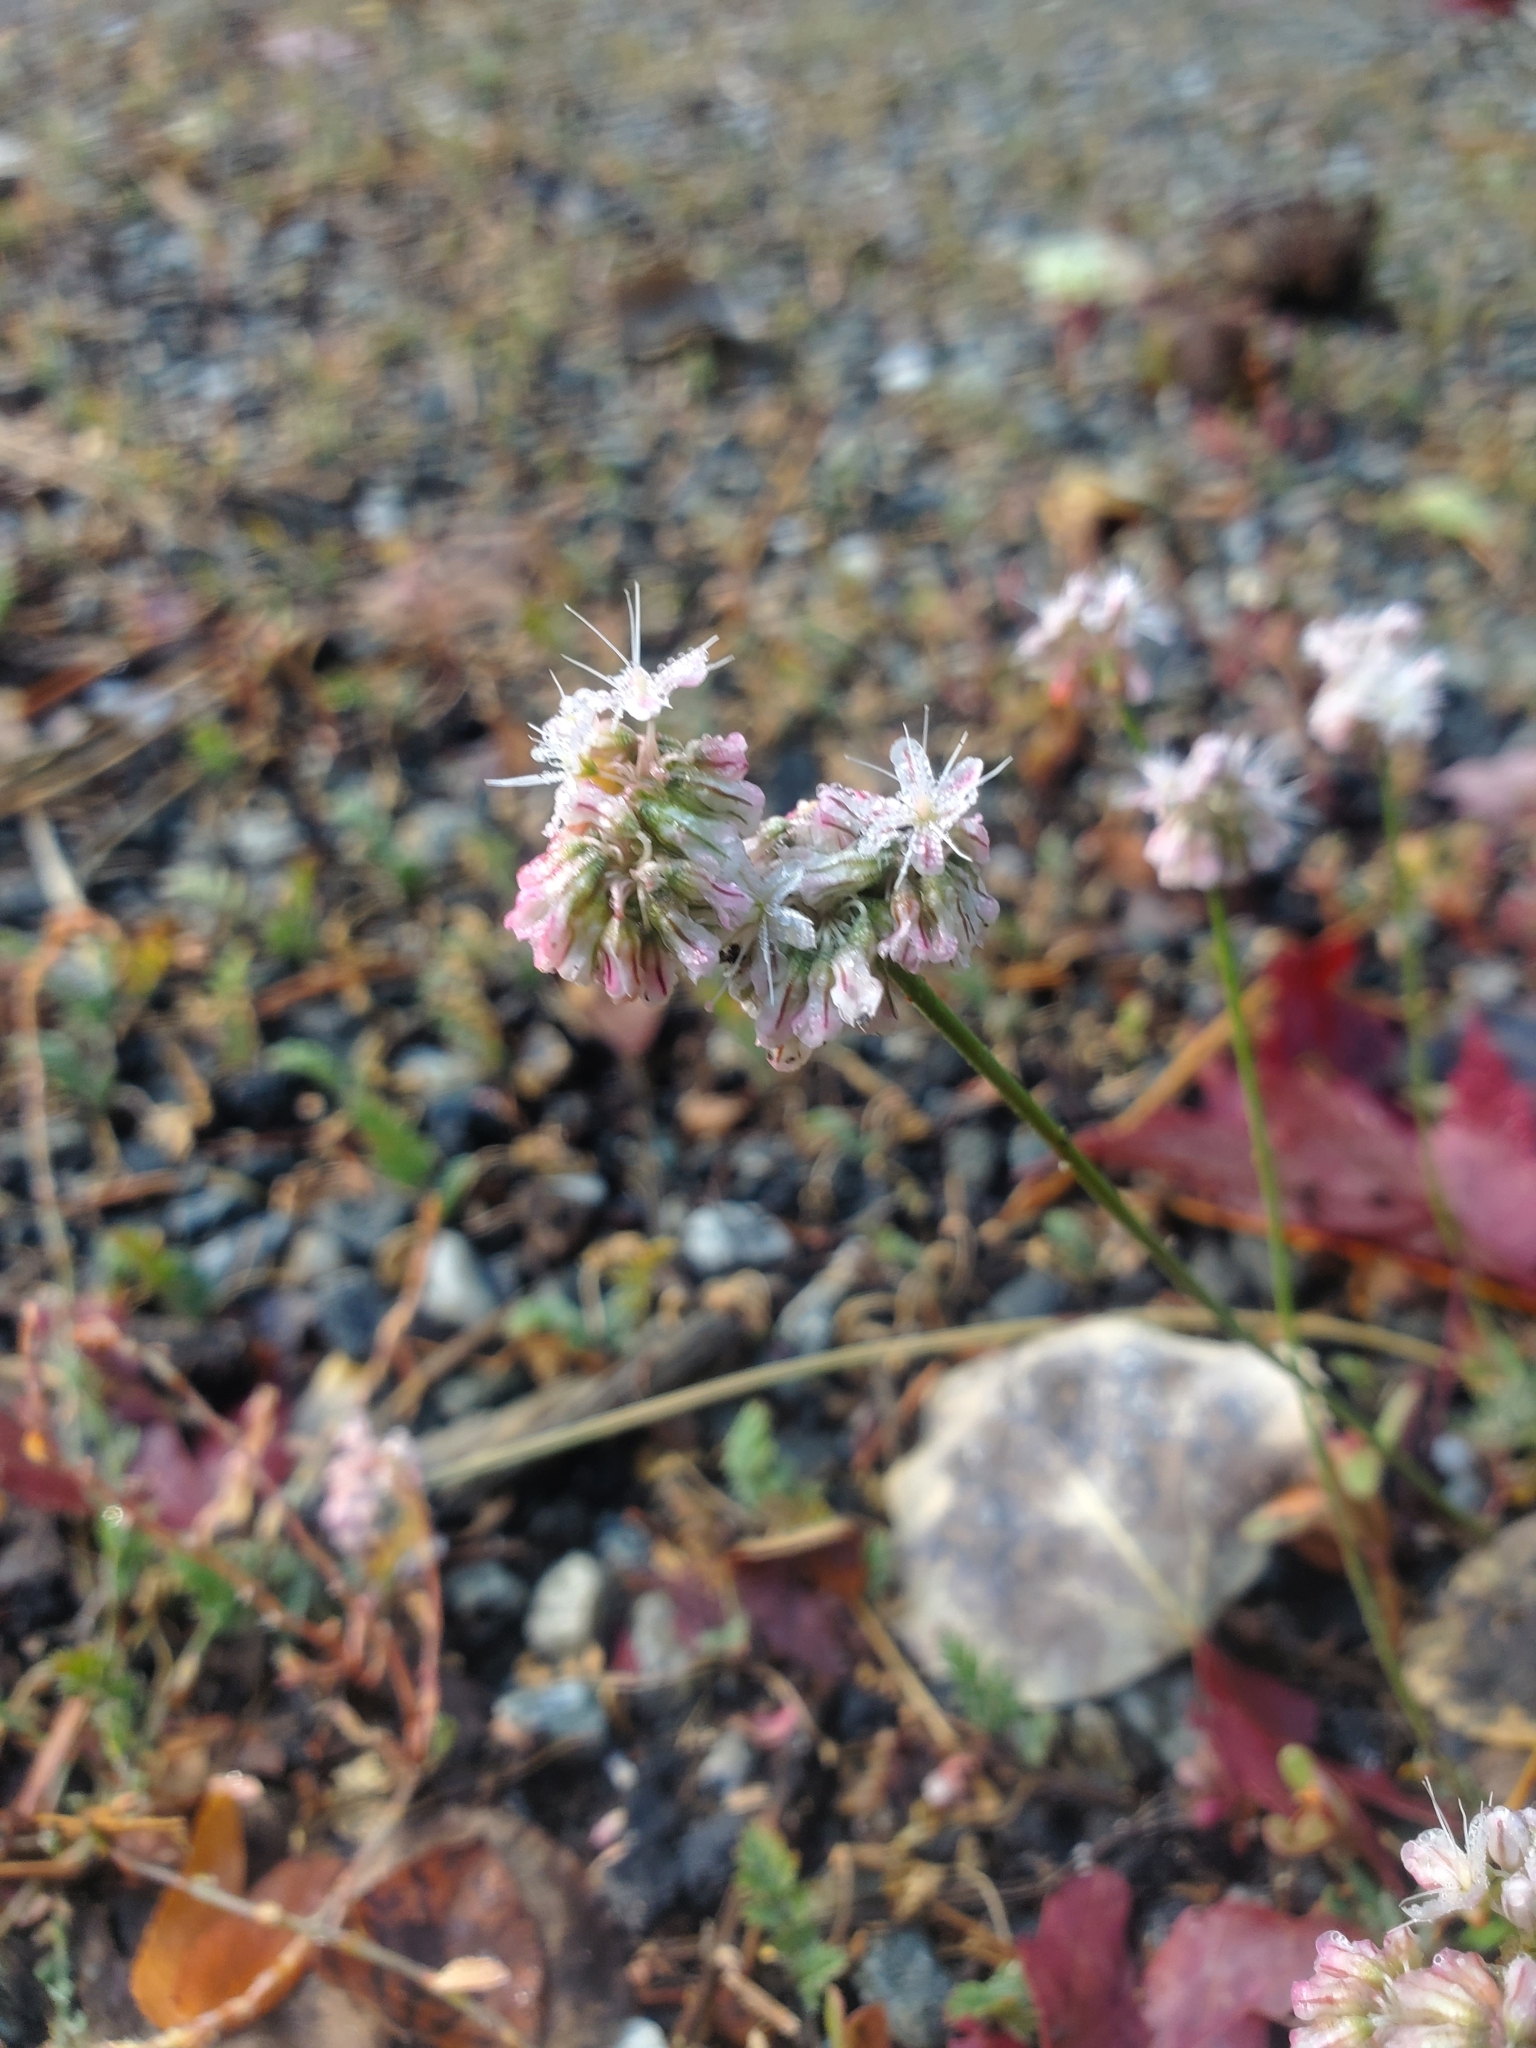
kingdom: Plantae
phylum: Tracheophyta
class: Magnoliopsida
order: Caryophyllales
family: Polygonaceae
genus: Eriogonum
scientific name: Eriogonum kennedyi
